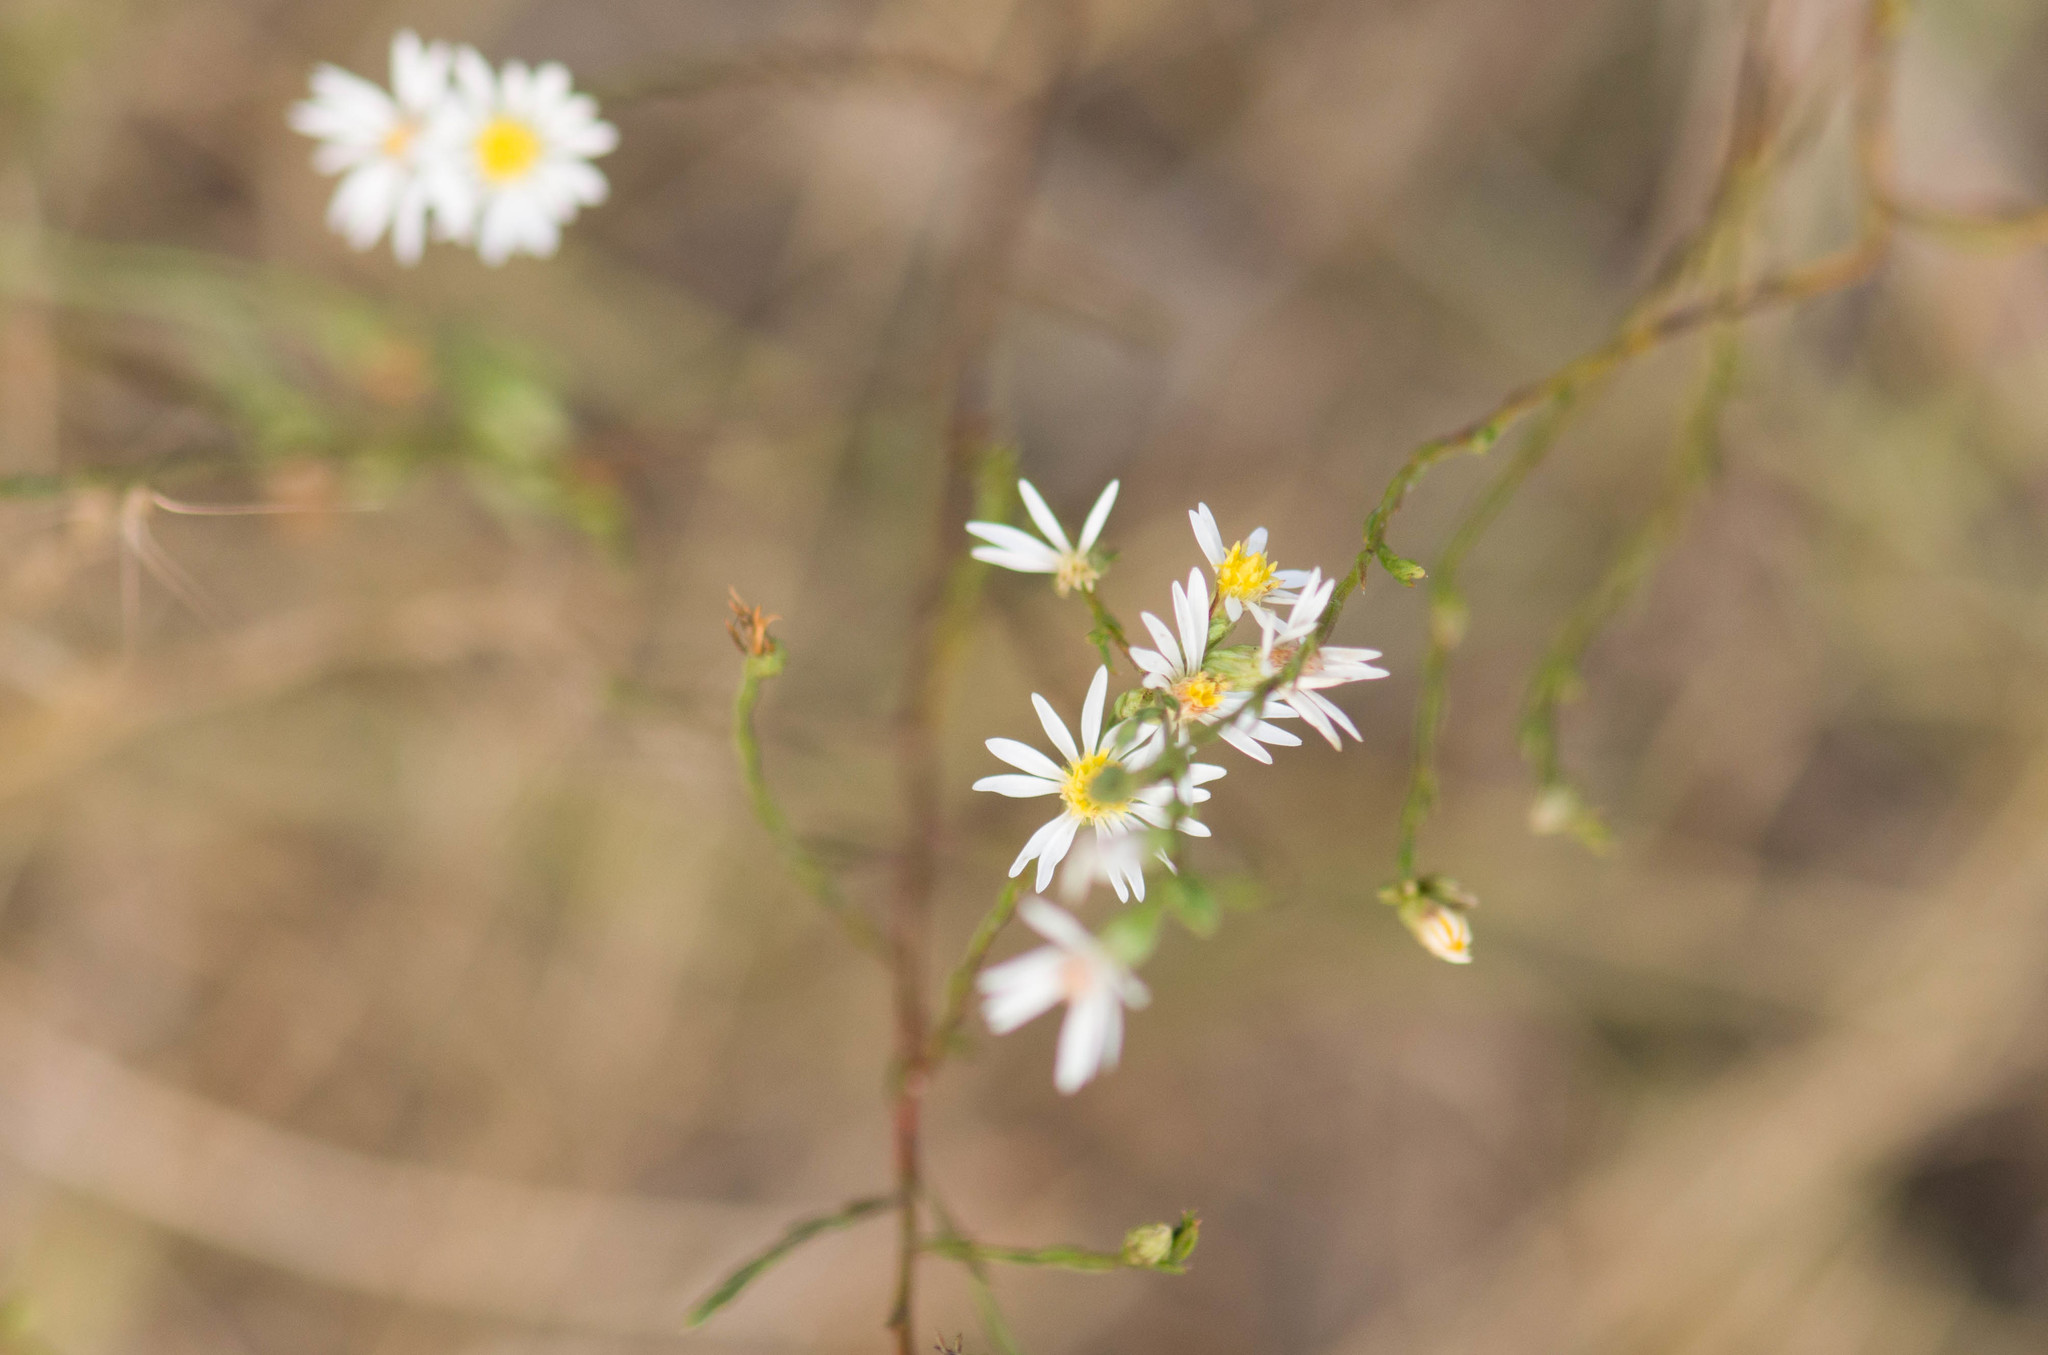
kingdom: Plantae
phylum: Tracheophyta
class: Magnoliopsida
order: Asterales
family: Asteraceae
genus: Symphyotrichum
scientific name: Symphyotrichum depauperatum
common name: Serpentine aster
